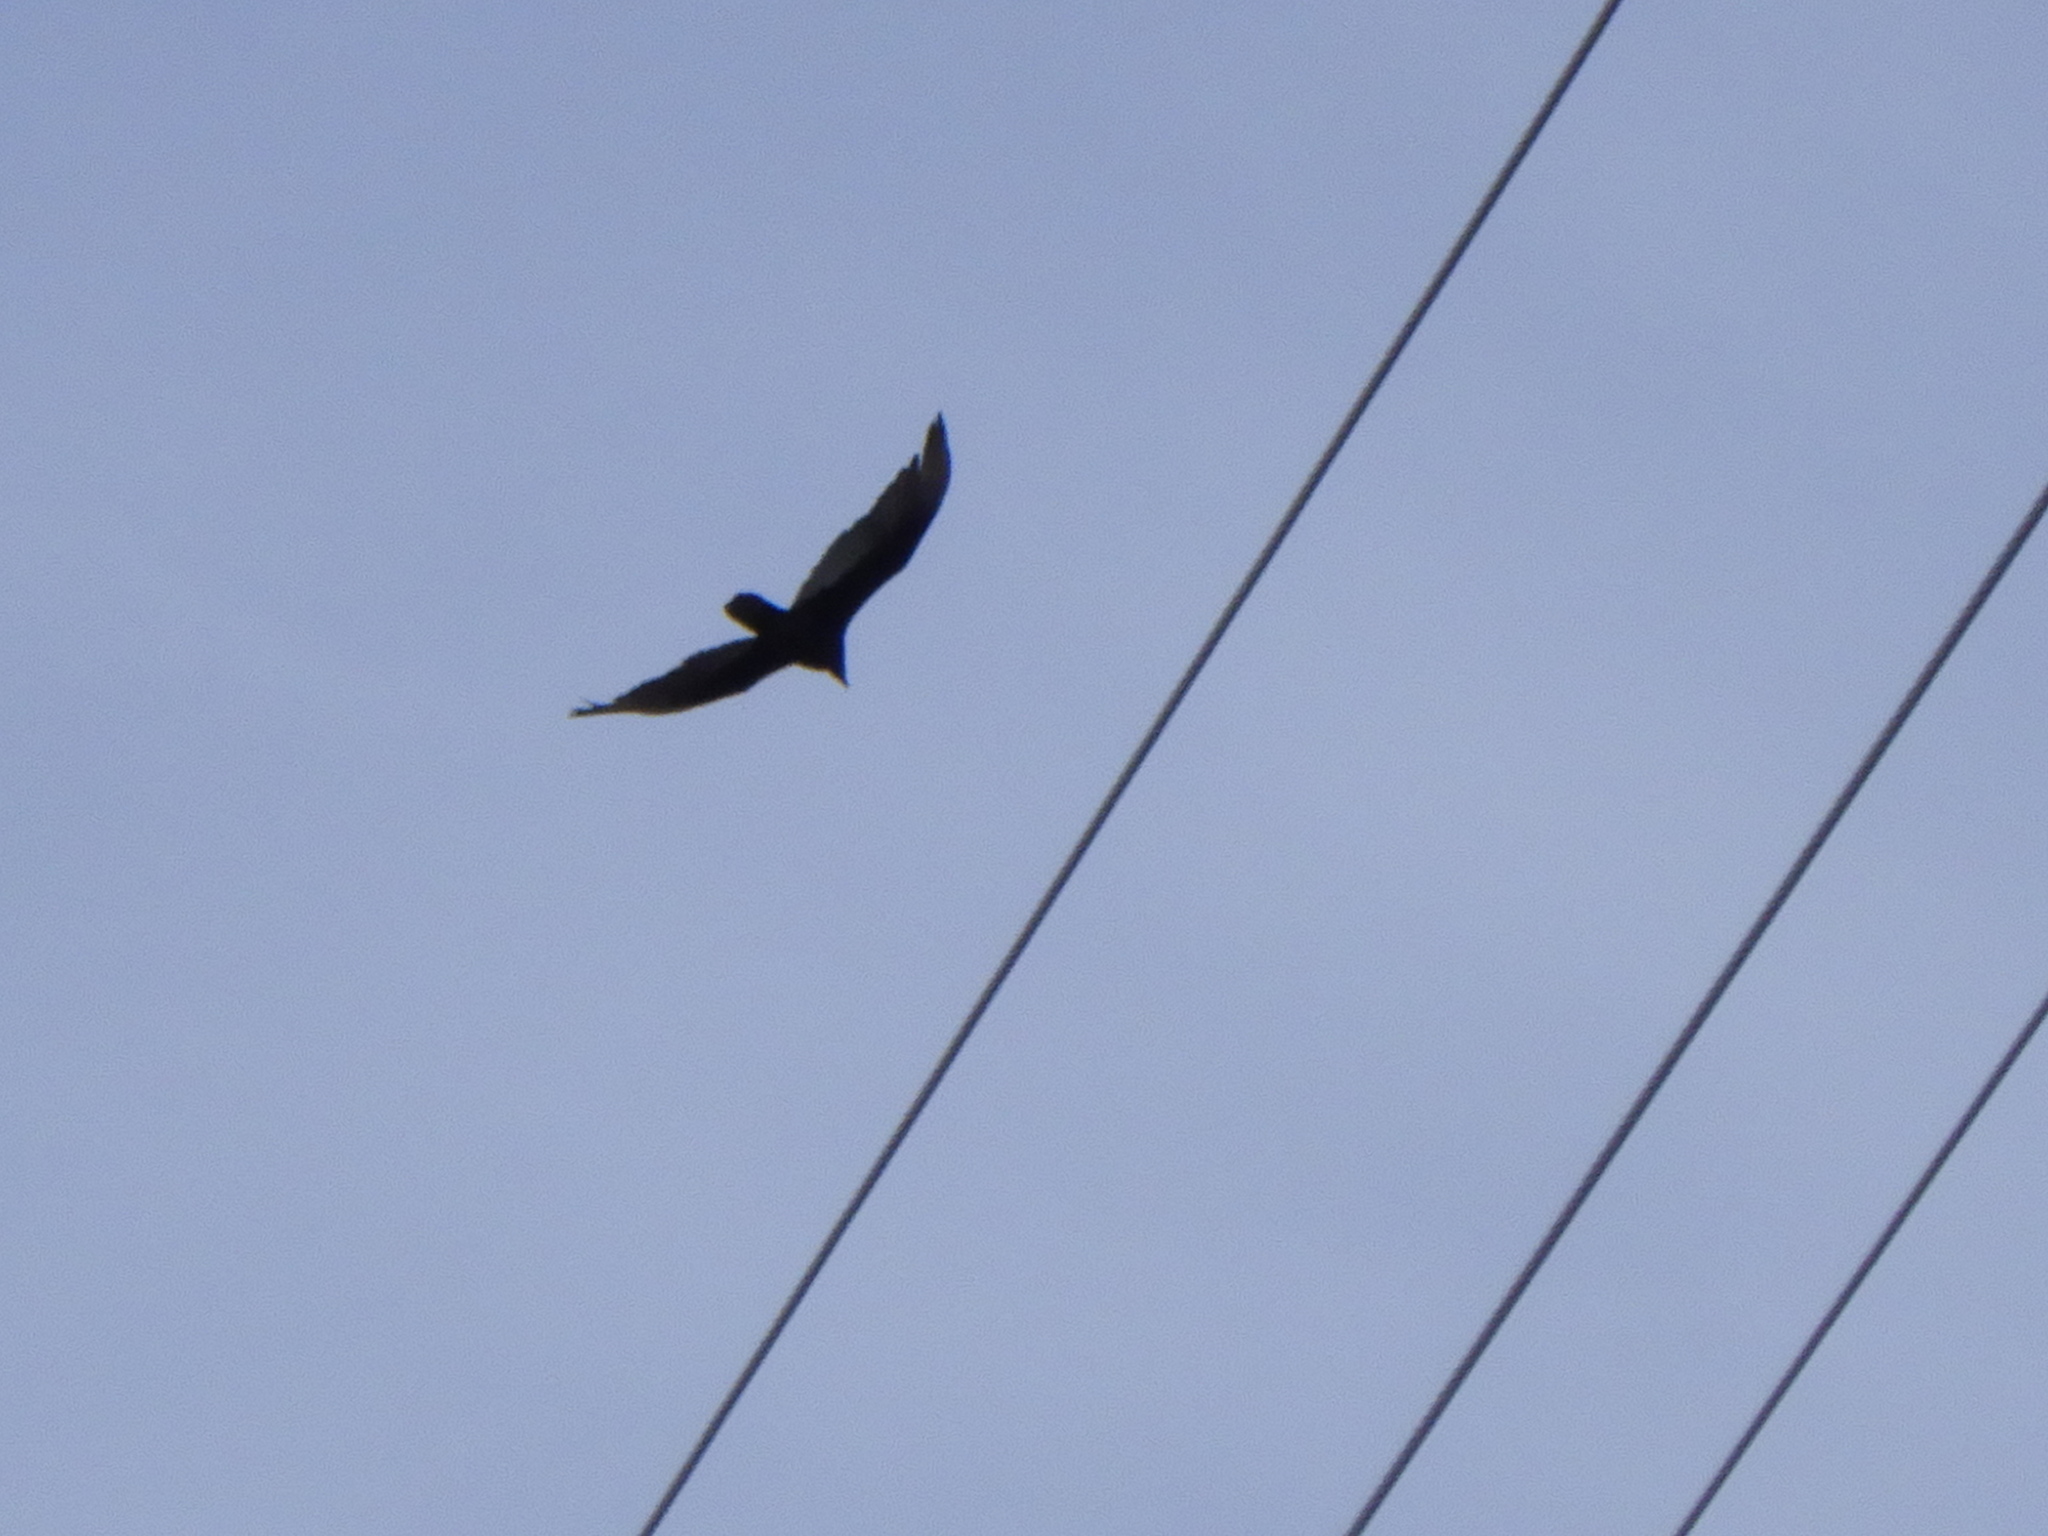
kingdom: Animalia
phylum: Chordata
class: Aves
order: Accipitriformes
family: Cathartidae
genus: Cathartes
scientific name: Cathartes aura
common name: Turkey vulture
